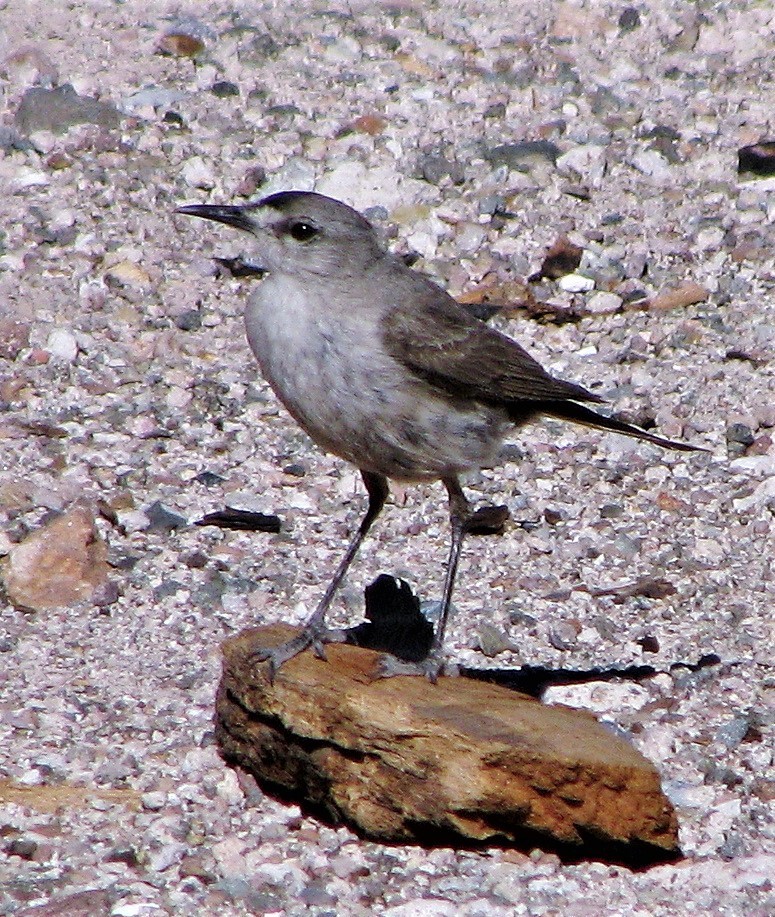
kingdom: Animalia
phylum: Chordata
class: Aves
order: Passeriformes
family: Tyrannidae
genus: Muscisaxicola
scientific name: Muscisaxicola frontalis
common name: Black-fronted ground tyrant
